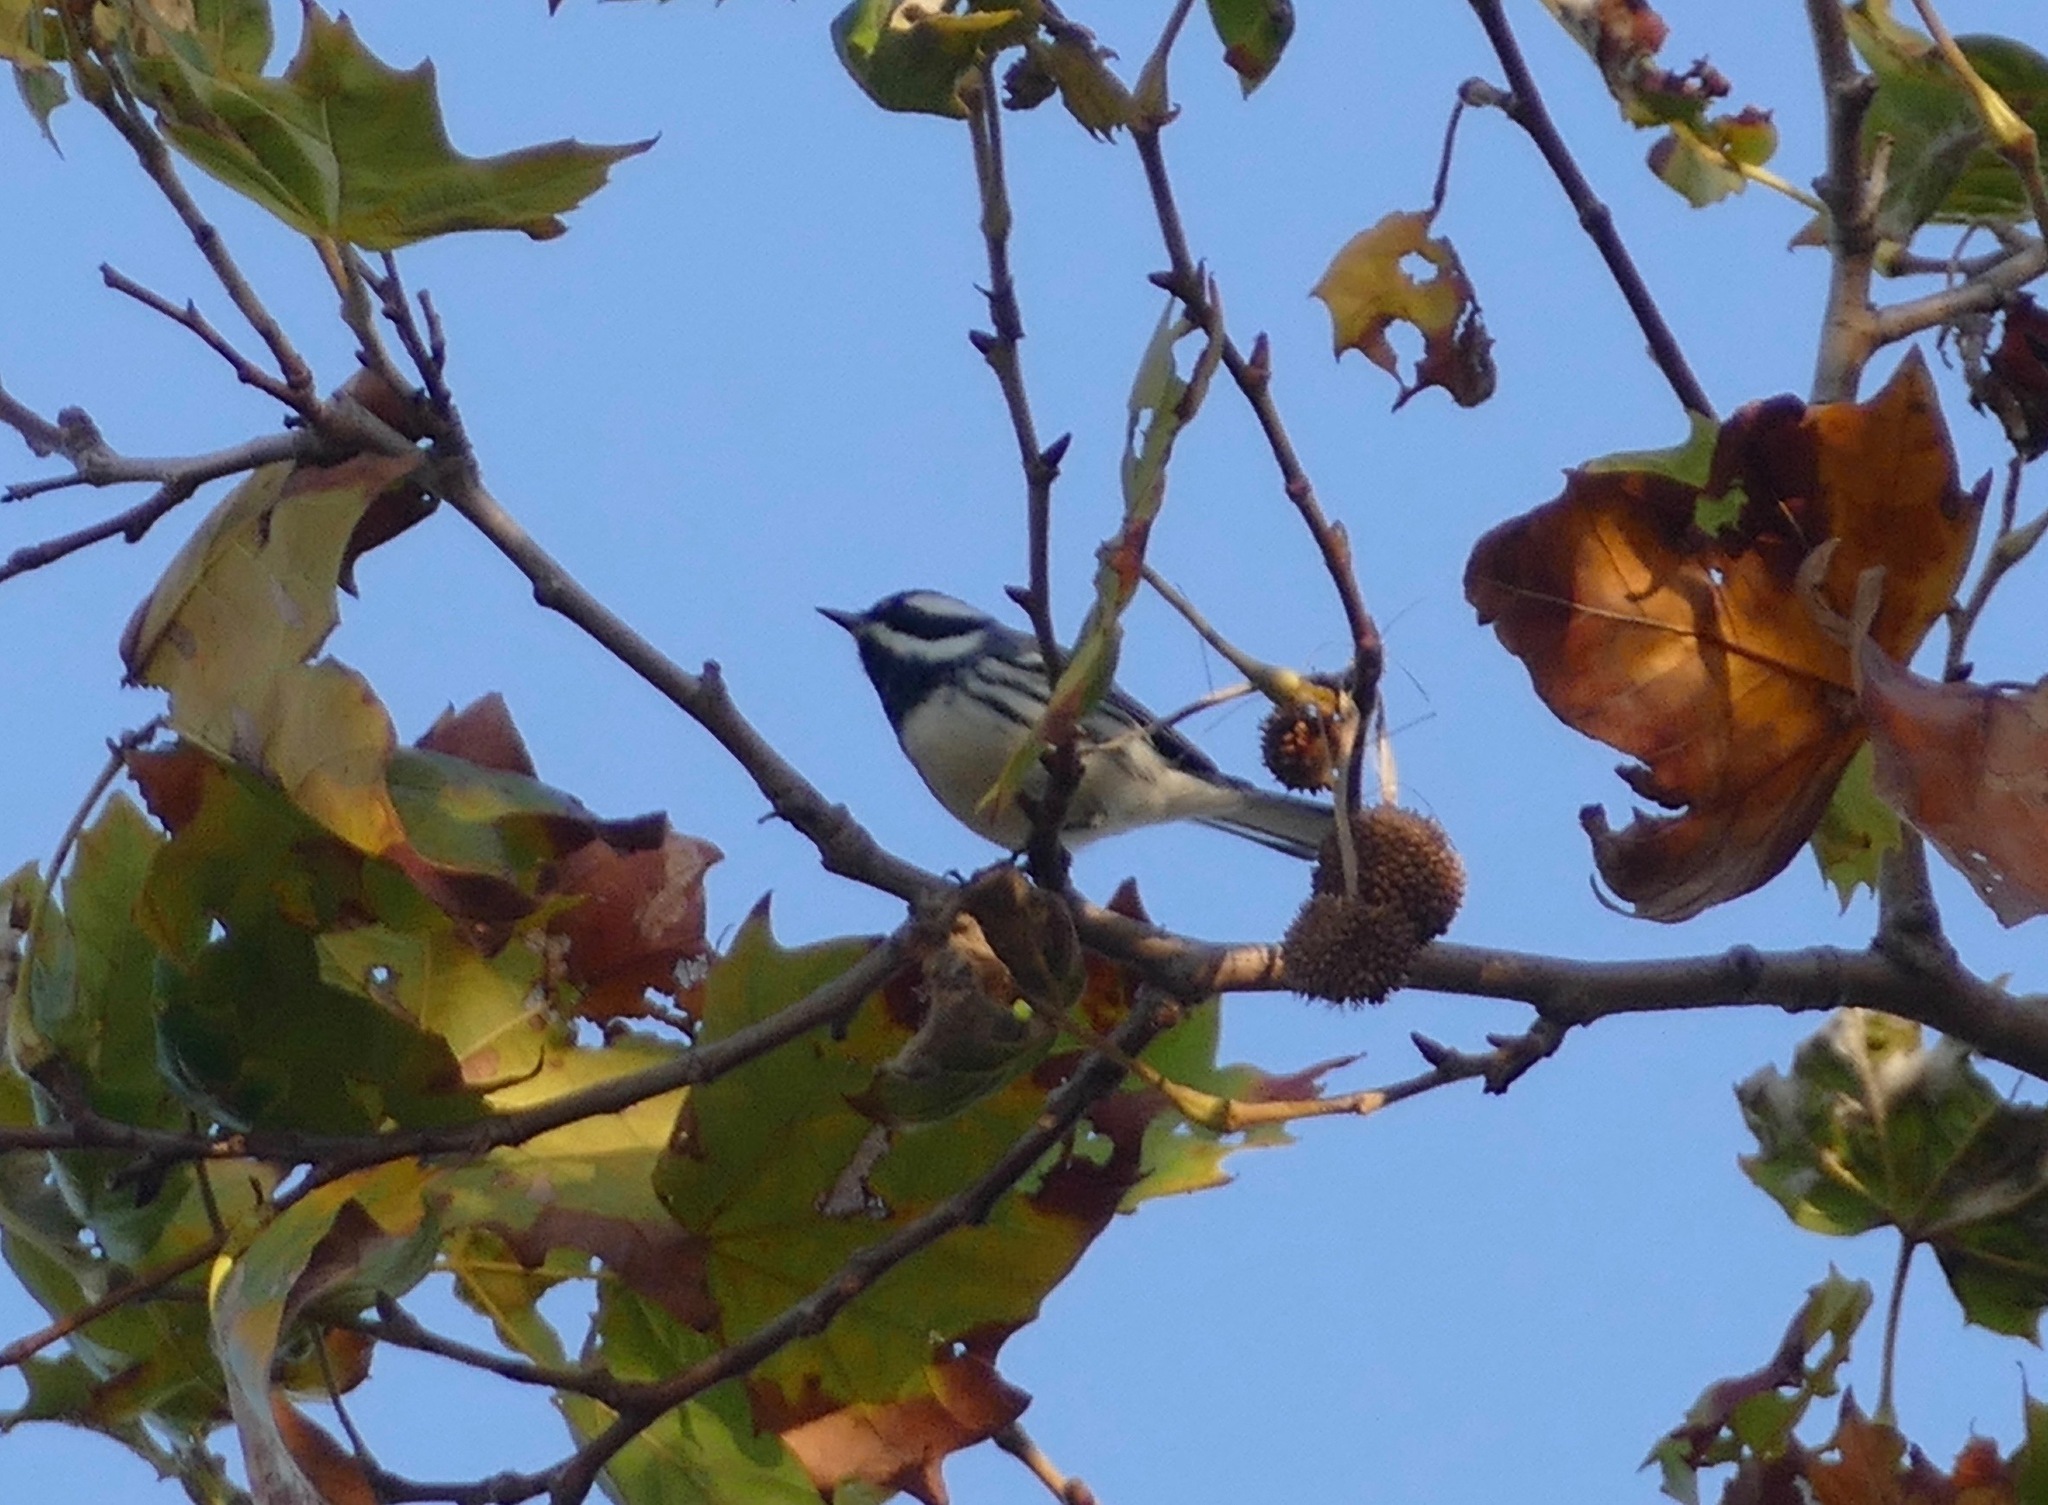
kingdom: Animalia
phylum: Chordata
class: Aves
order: Passeriformes
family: Parulidae
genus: Setophaga
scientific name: Setophaga nigrescens
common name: Black-throated gray warbler
